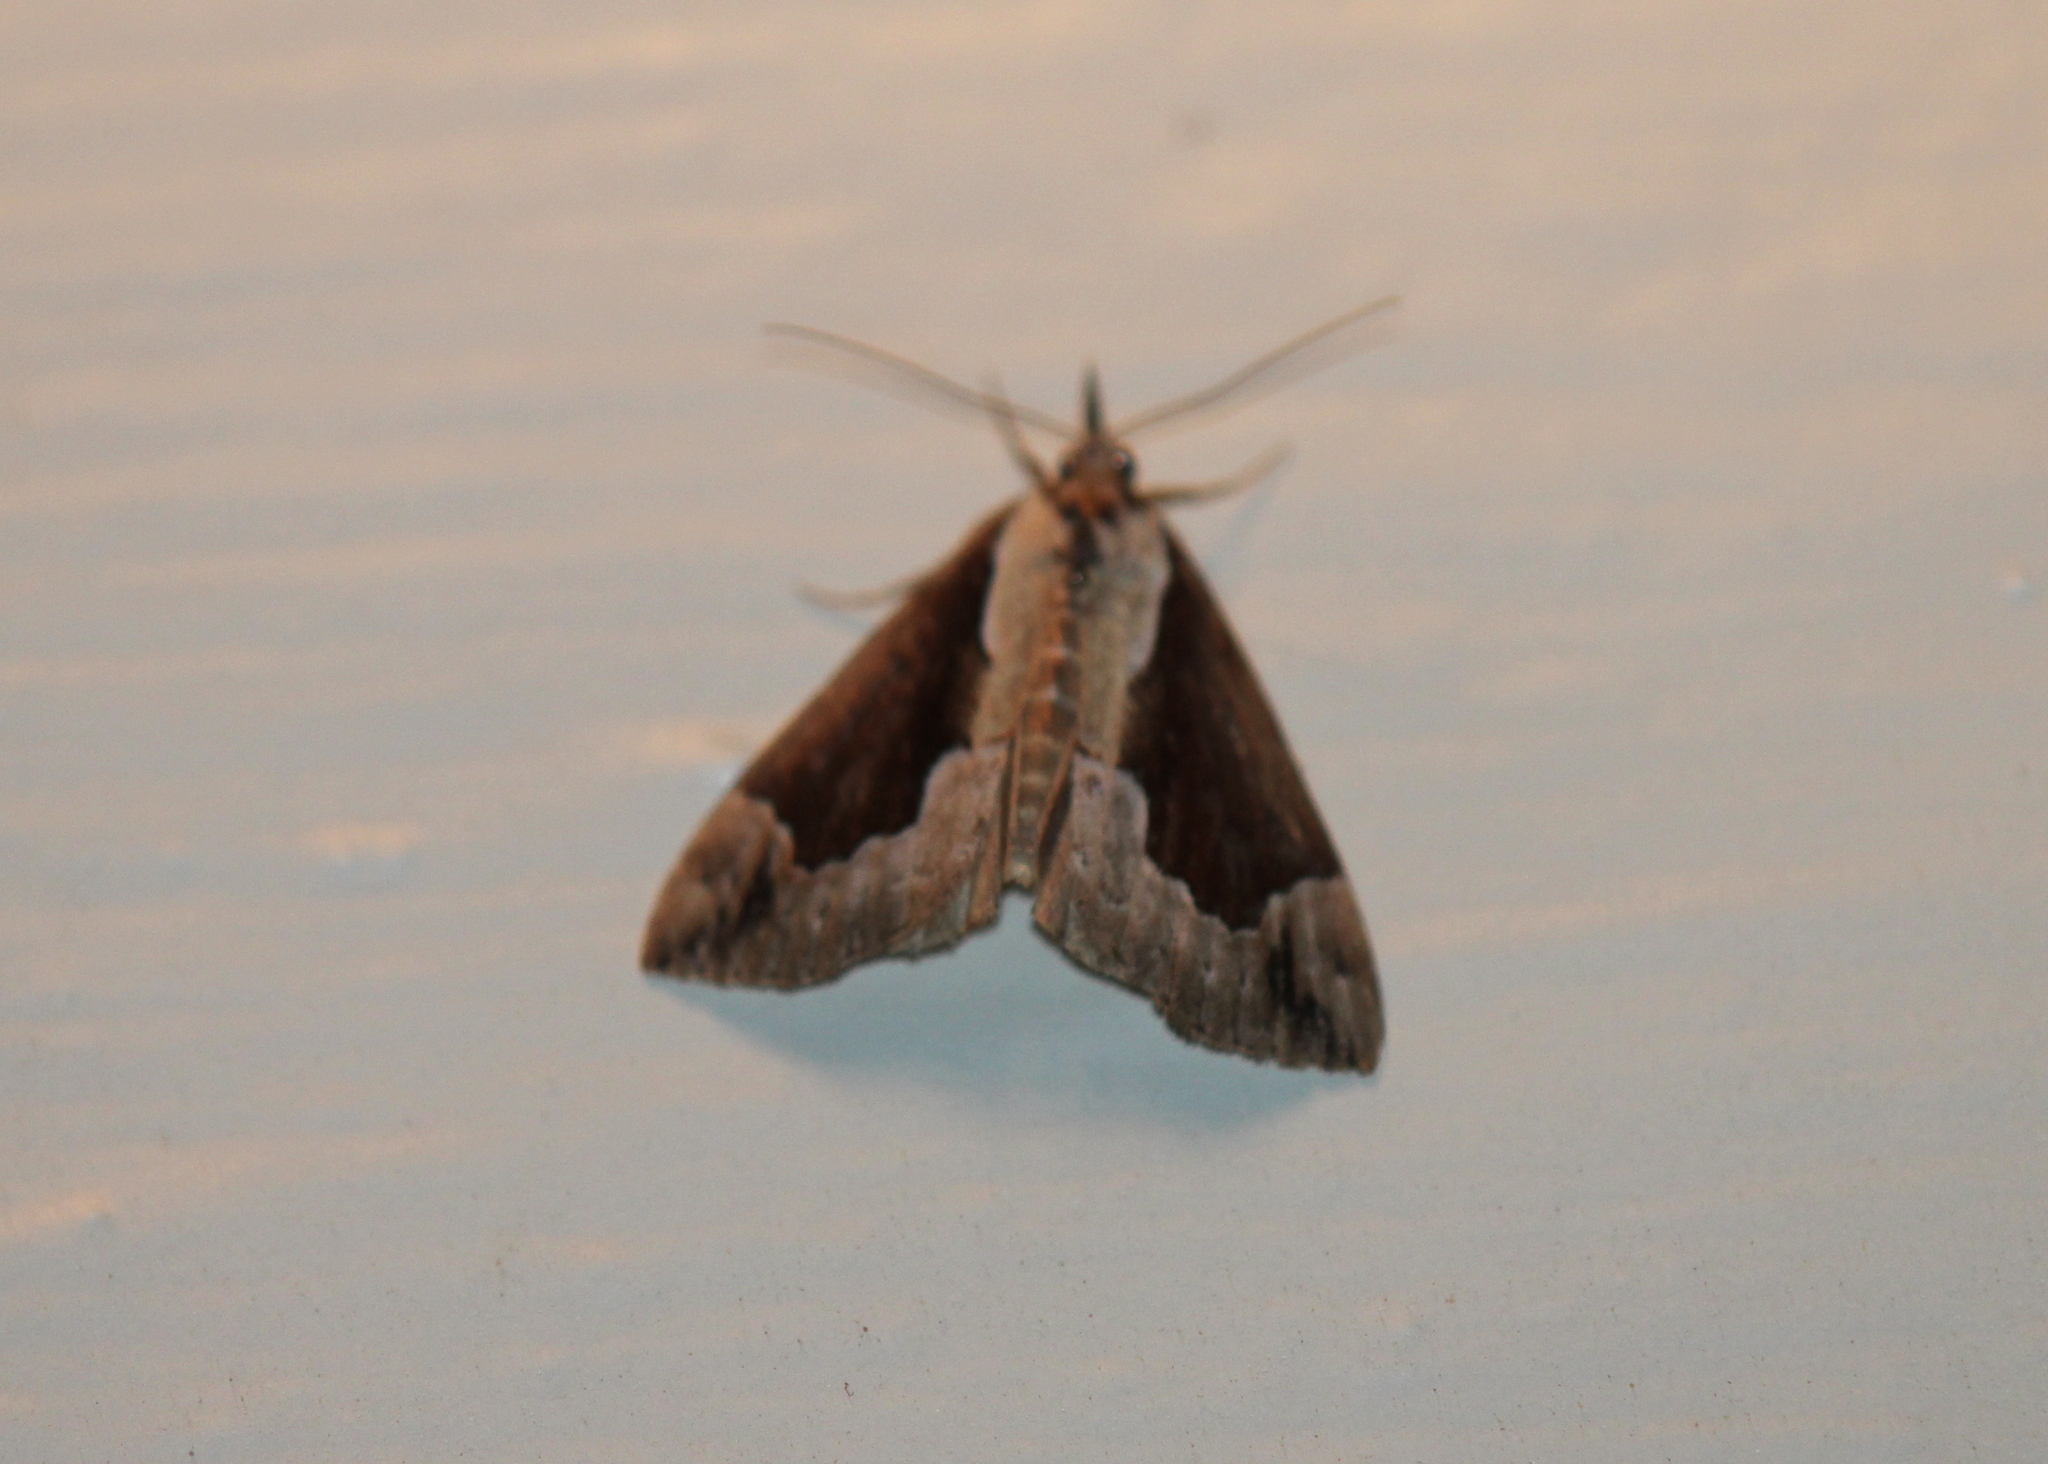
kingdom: Animalia
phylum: Arthropoda
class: Insecta
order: Lepidoptera
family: Erebidae
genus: Hypena
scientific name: Hypena baltimoralis
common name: Baltimore snout
